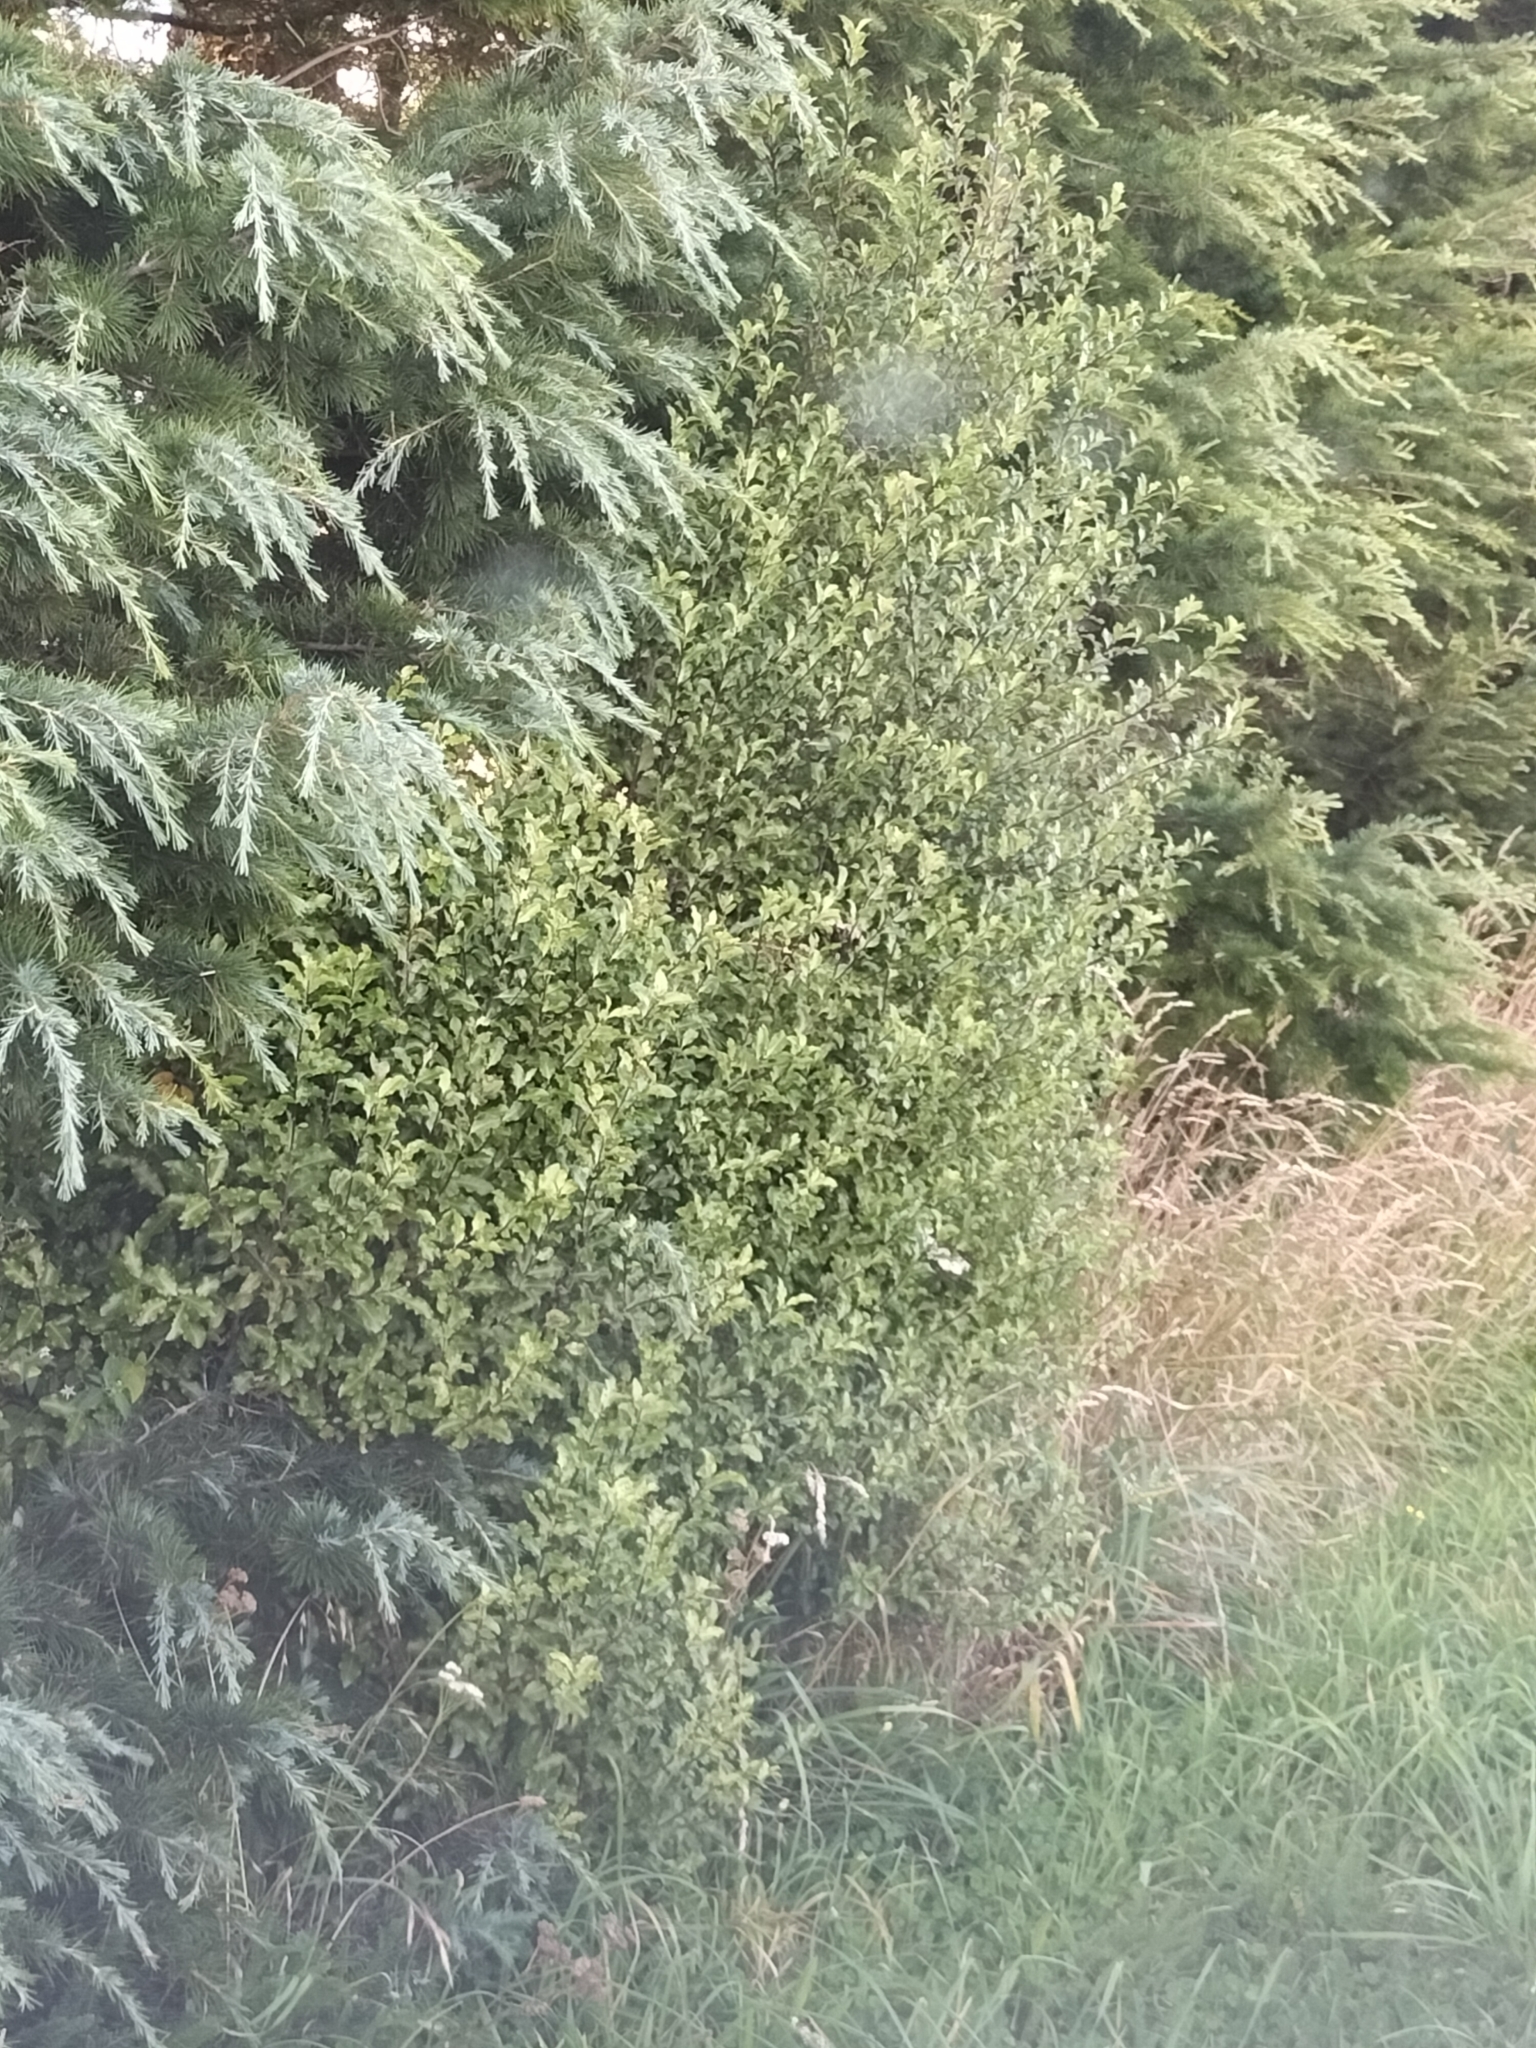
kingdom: Plantae
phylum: Tracheophyta
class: Magnoliopsida
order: Apiales
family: Pittosporaceae
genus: Pittosporum
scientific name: Pittosporum tenuifolium
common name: Kohuhu
